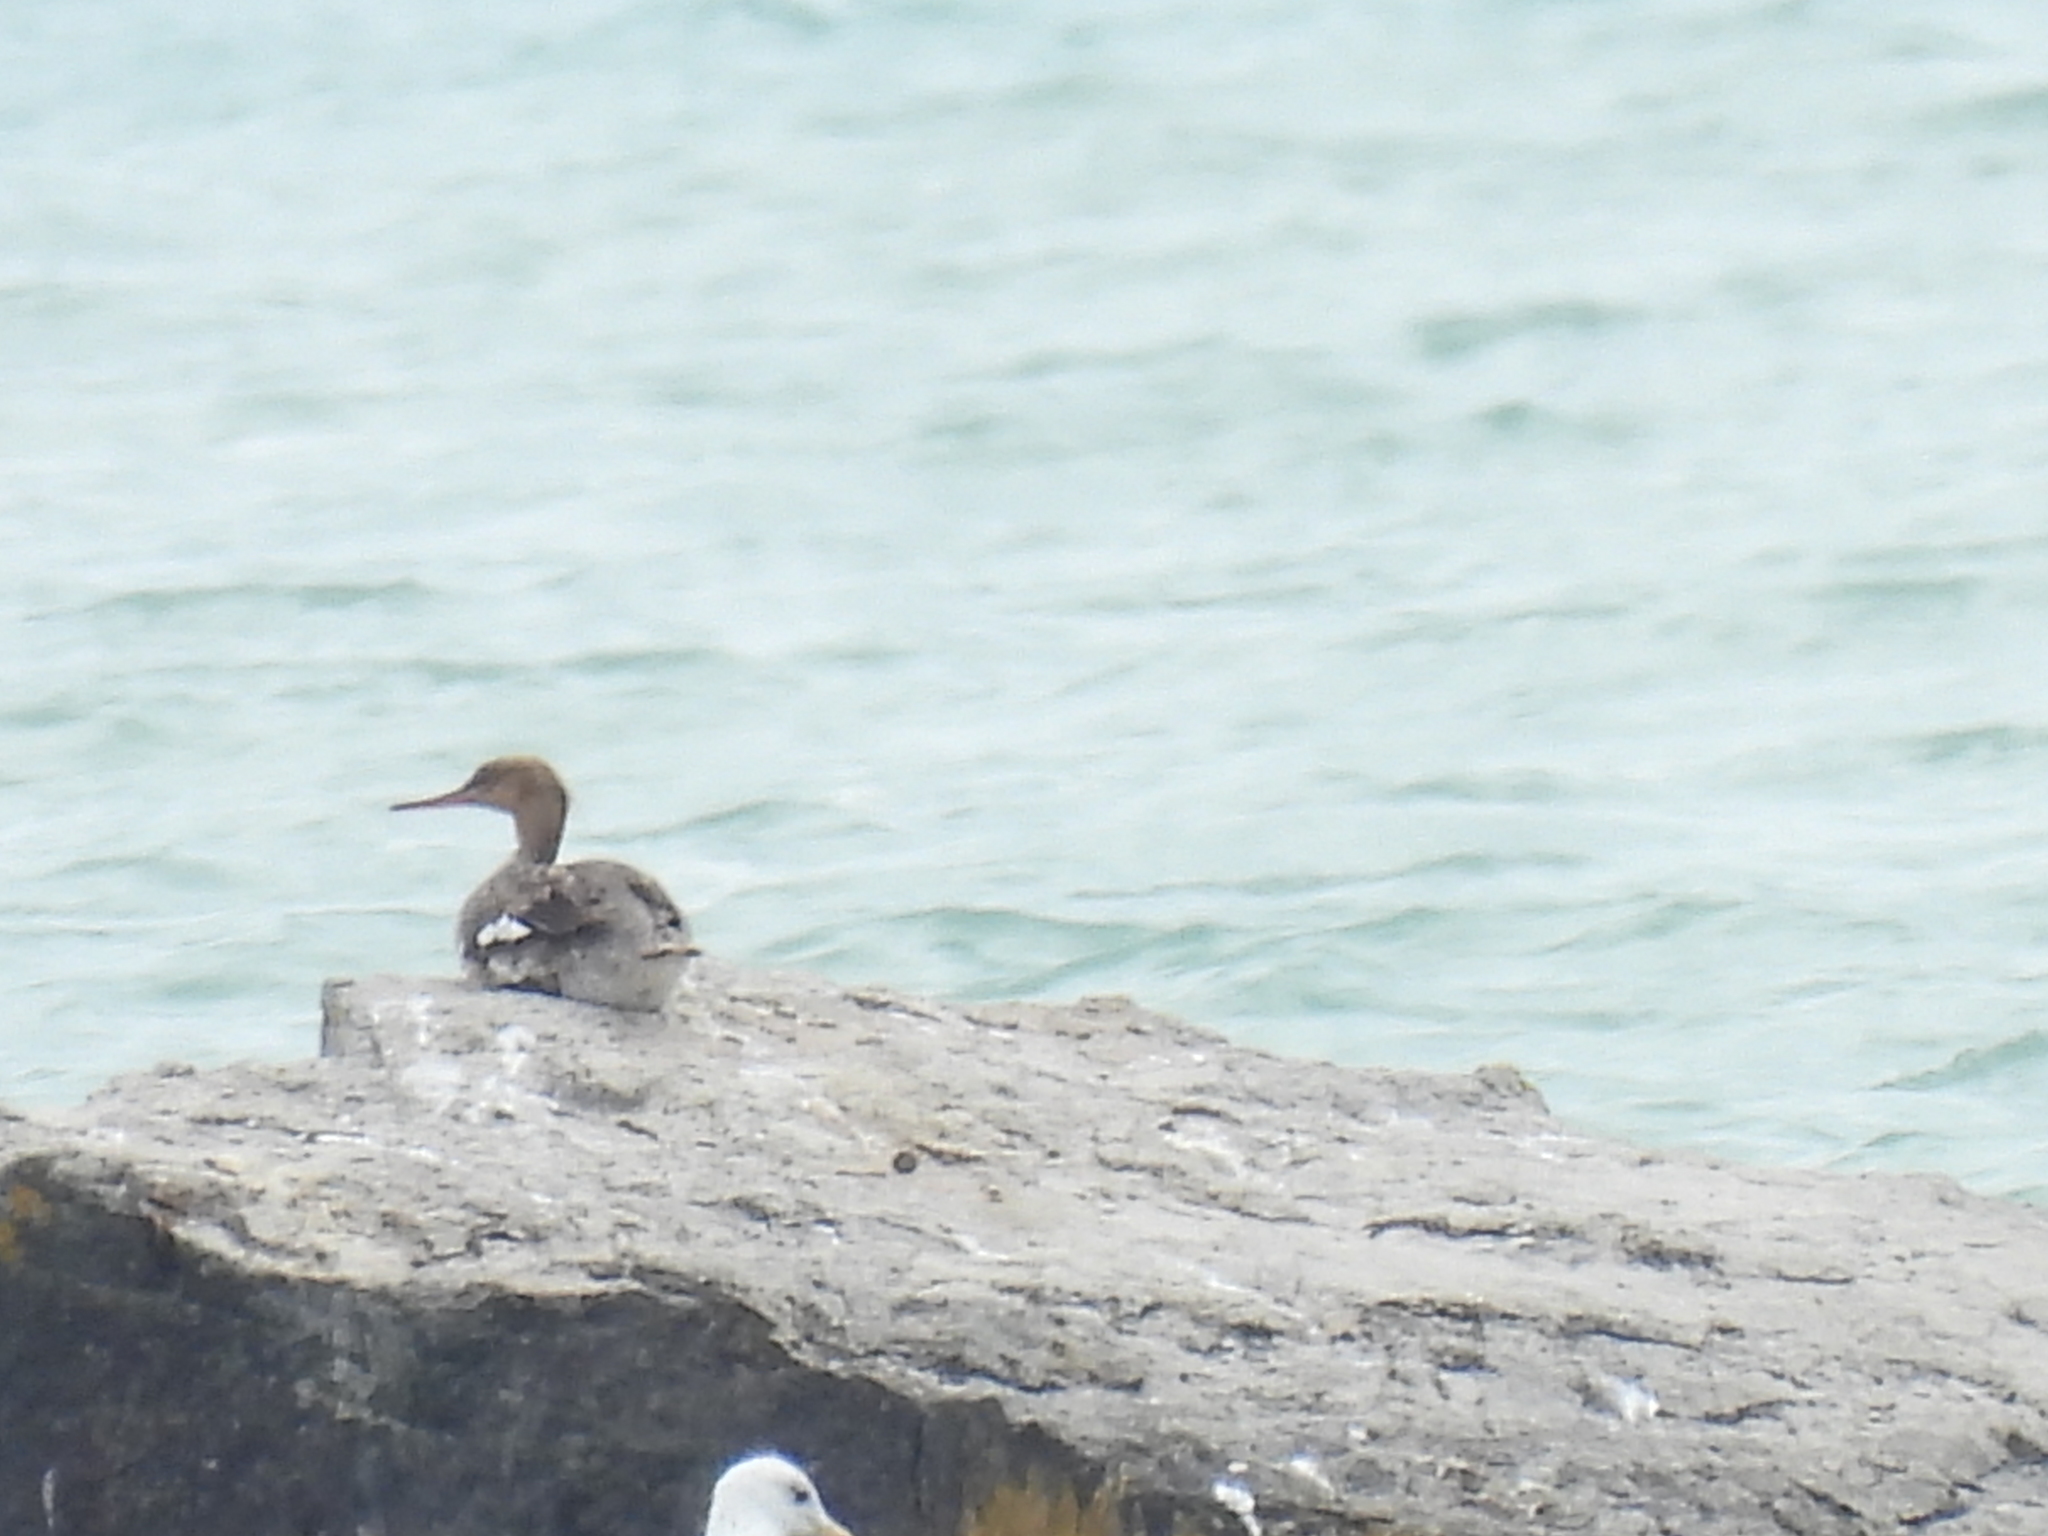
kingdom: Animalia
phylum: Chordata
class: Aves
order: Anseriformes
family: Anatidae
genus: Mergus
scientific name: Mergus serrator
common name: Red-breasted merganser
